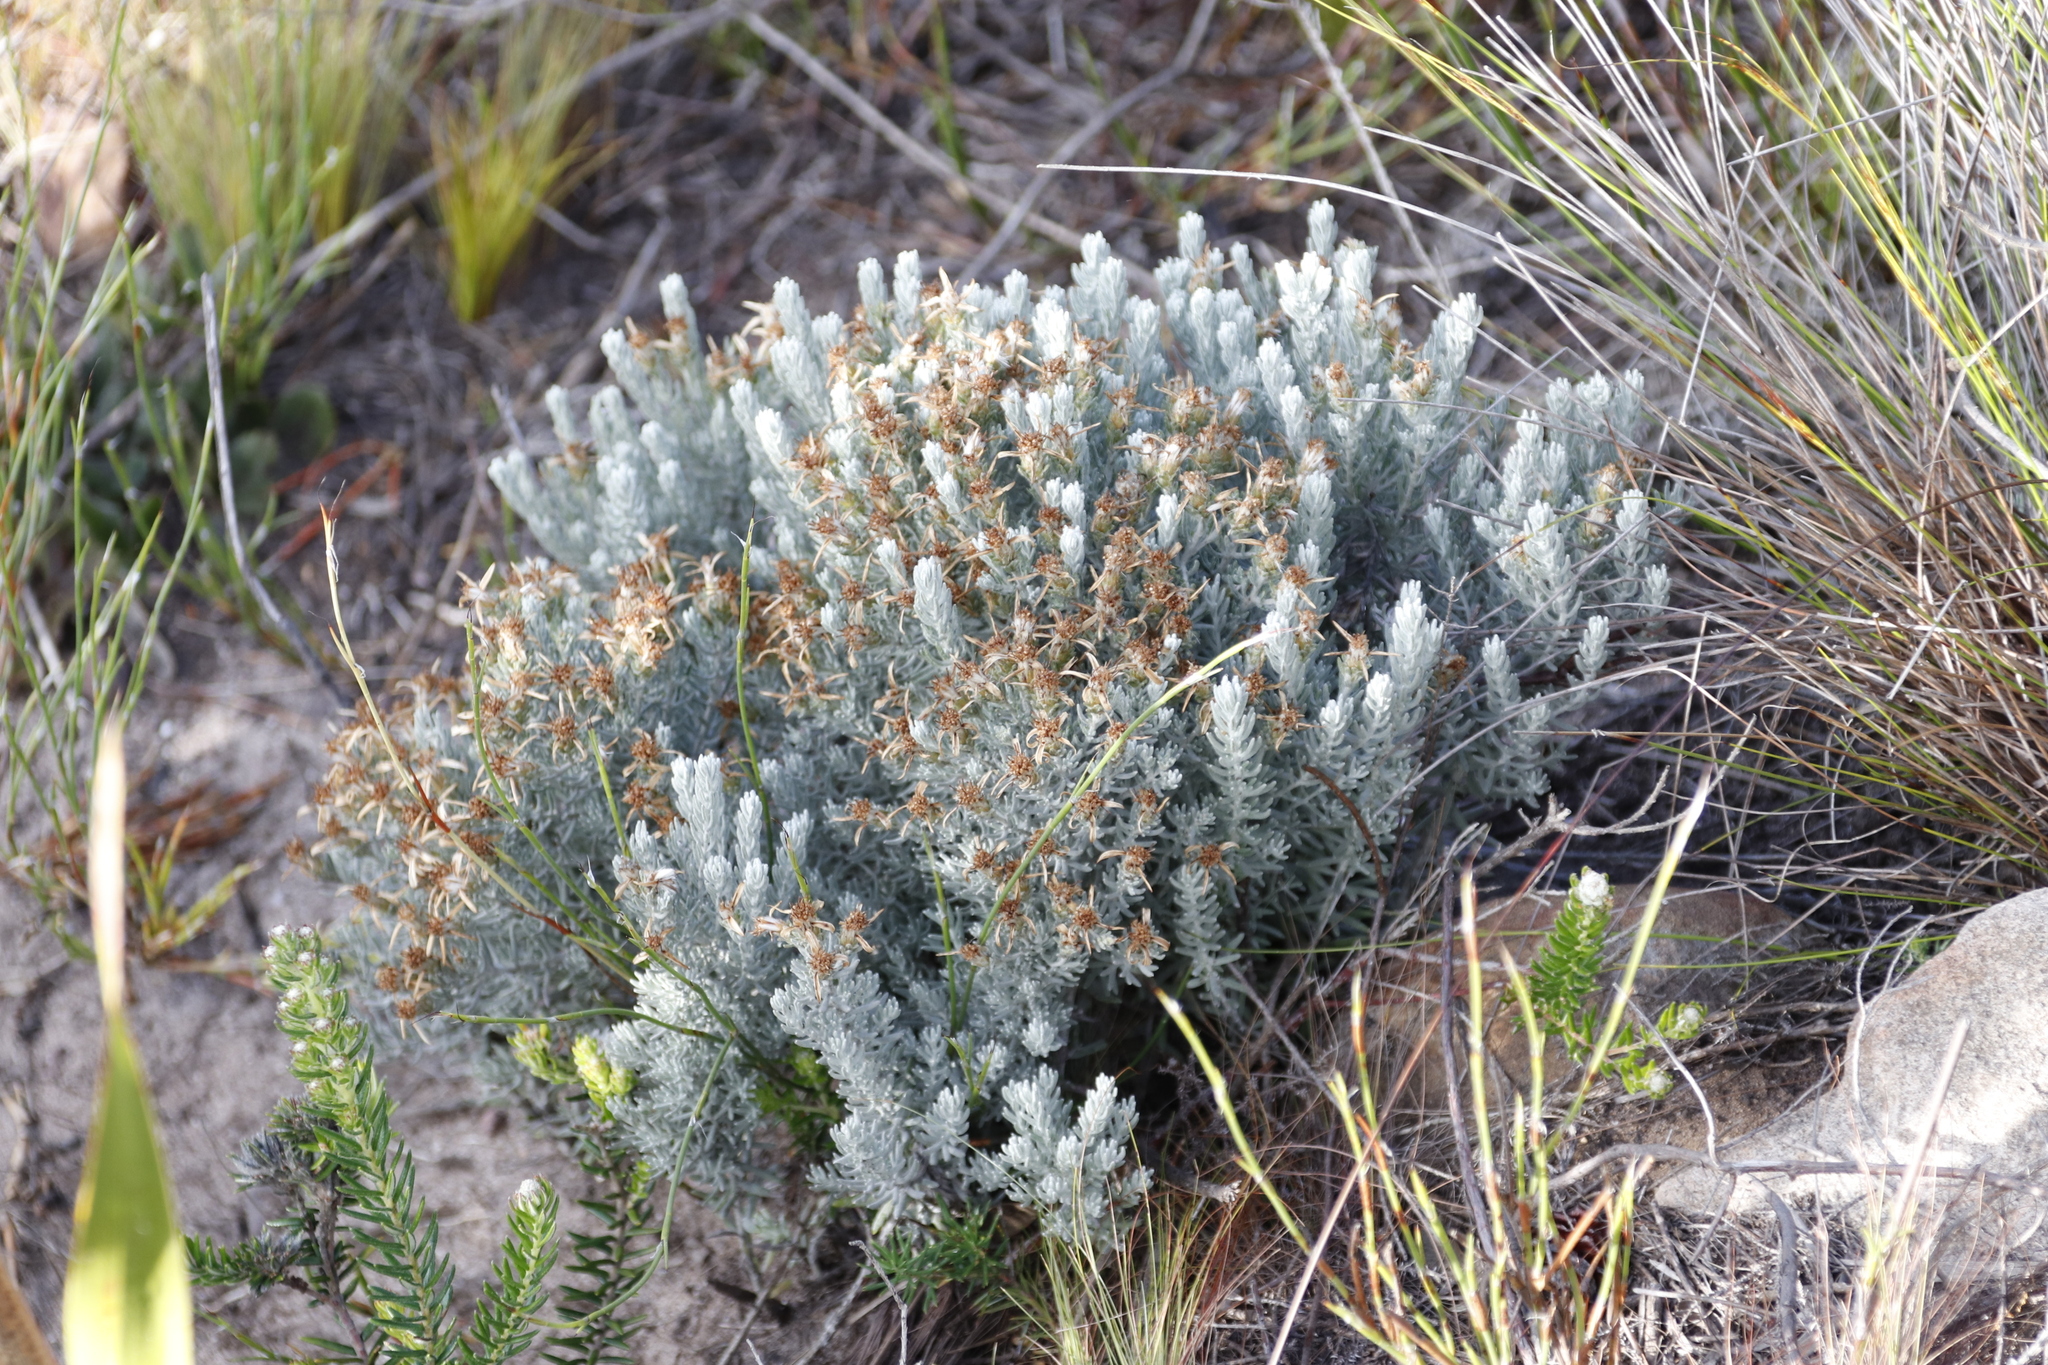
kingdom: Plantae
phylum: Tracheophyta
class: Magnoliopsida
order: Asterales
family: Asteraceae
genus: Printzia
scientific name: Printzia aromatica
